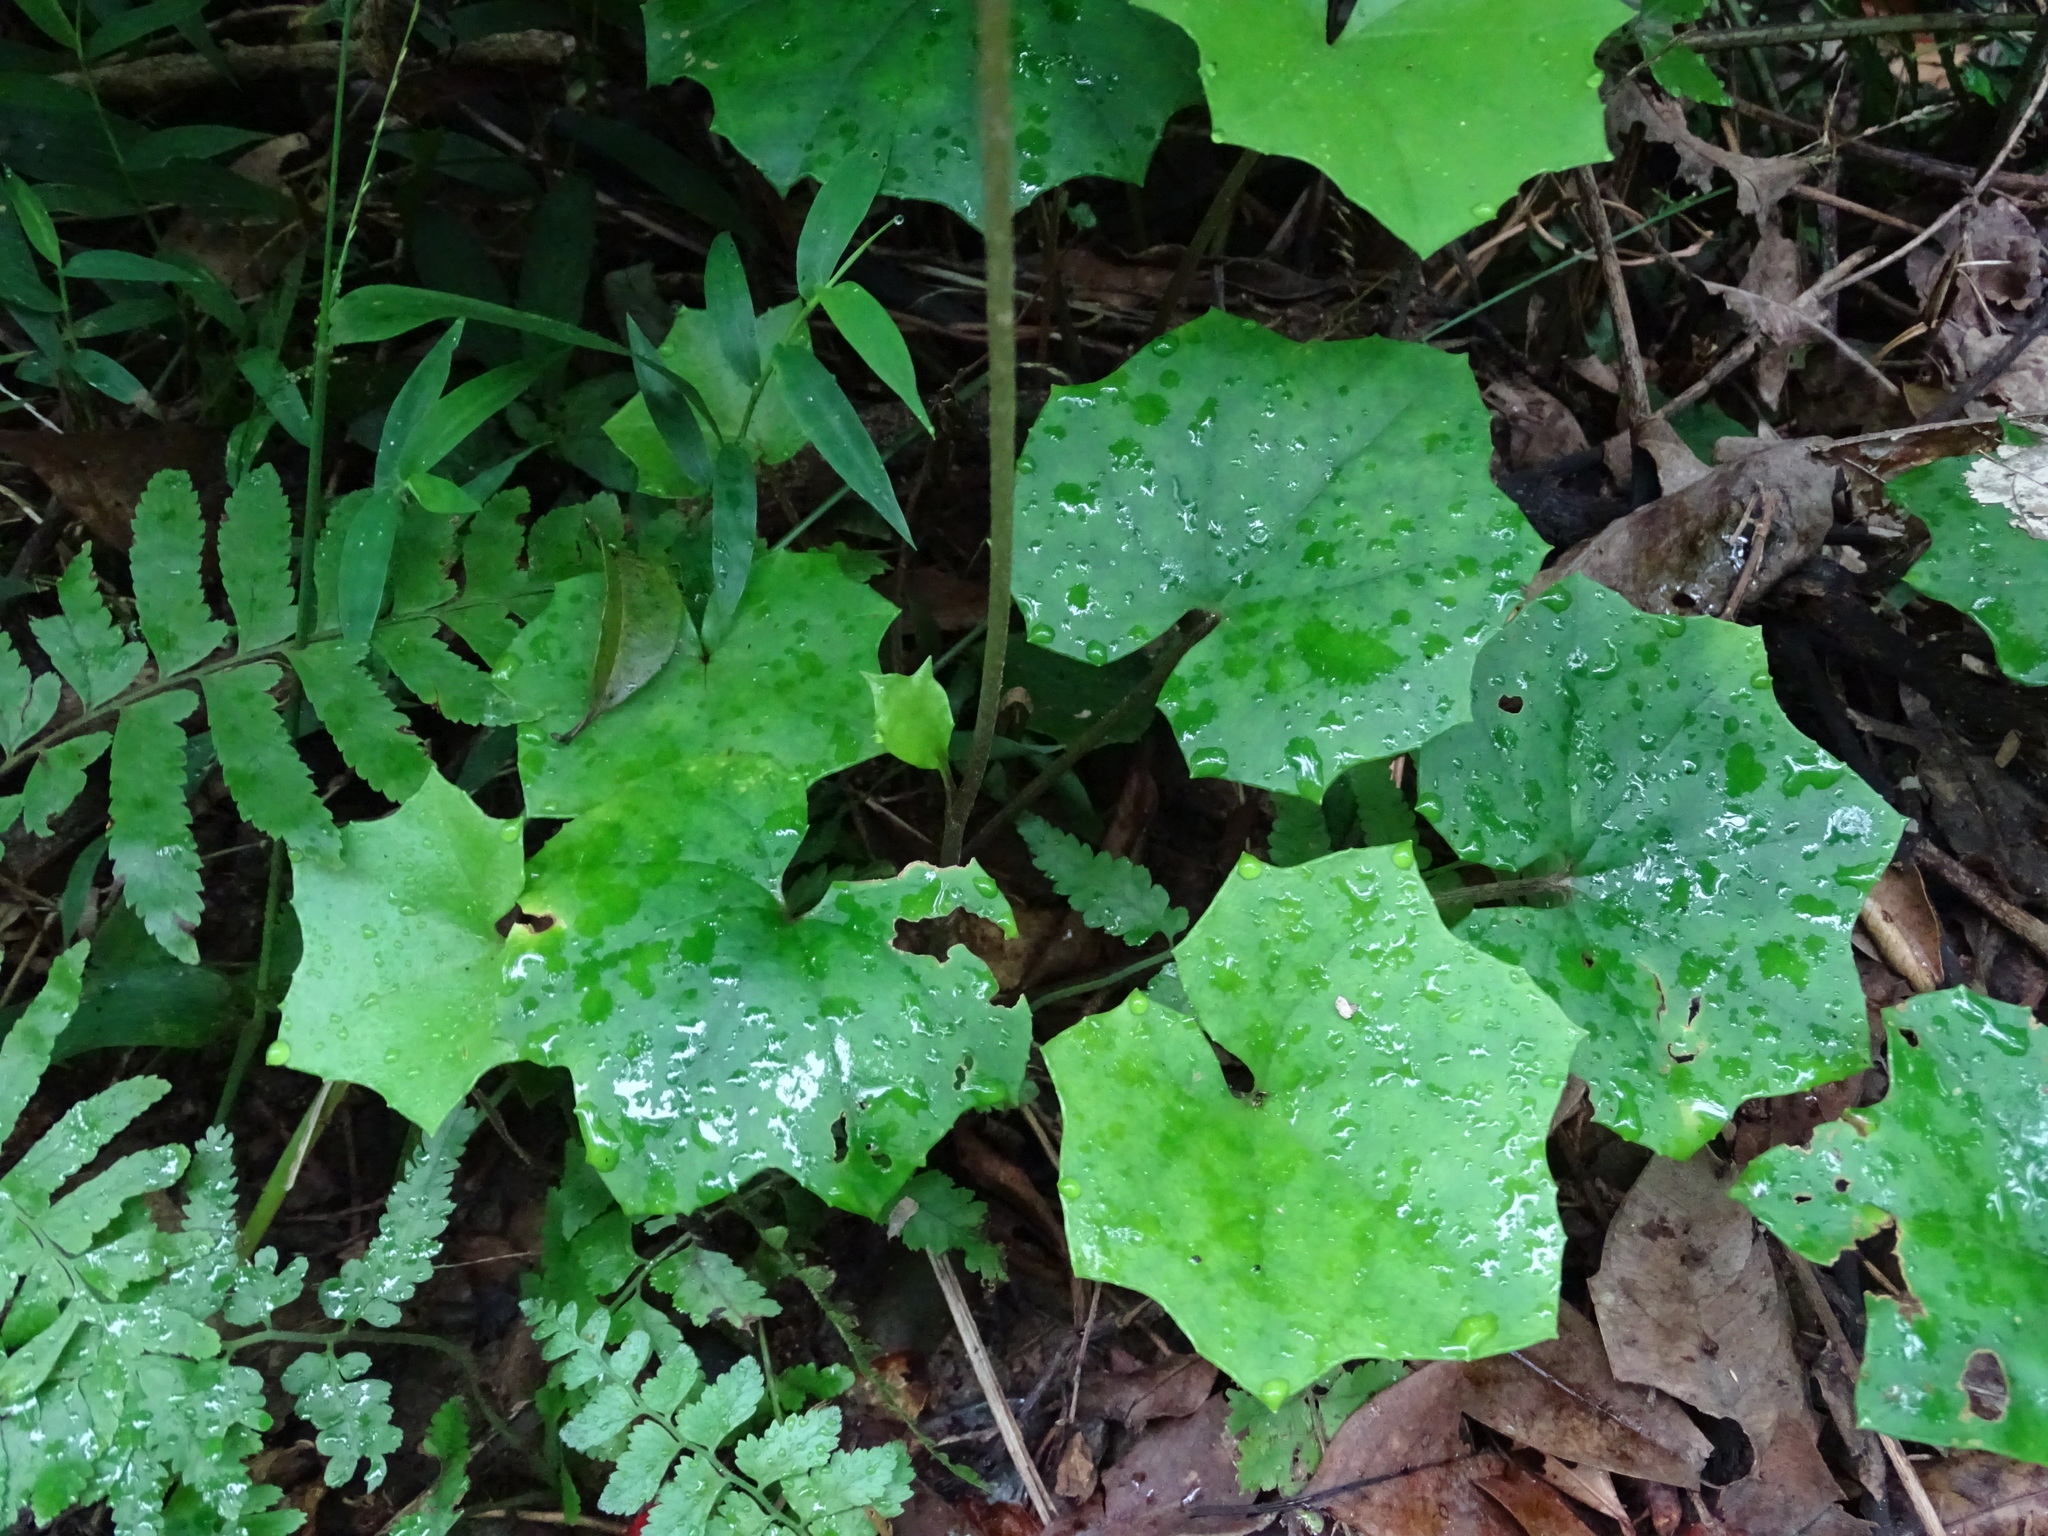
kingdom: Plantae
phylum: Tracheophyta
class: Magnoliopsida
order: Asterales
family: Asteraceae
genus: Farfugium
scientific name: Farfugium japonicum
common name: Leopardplant
